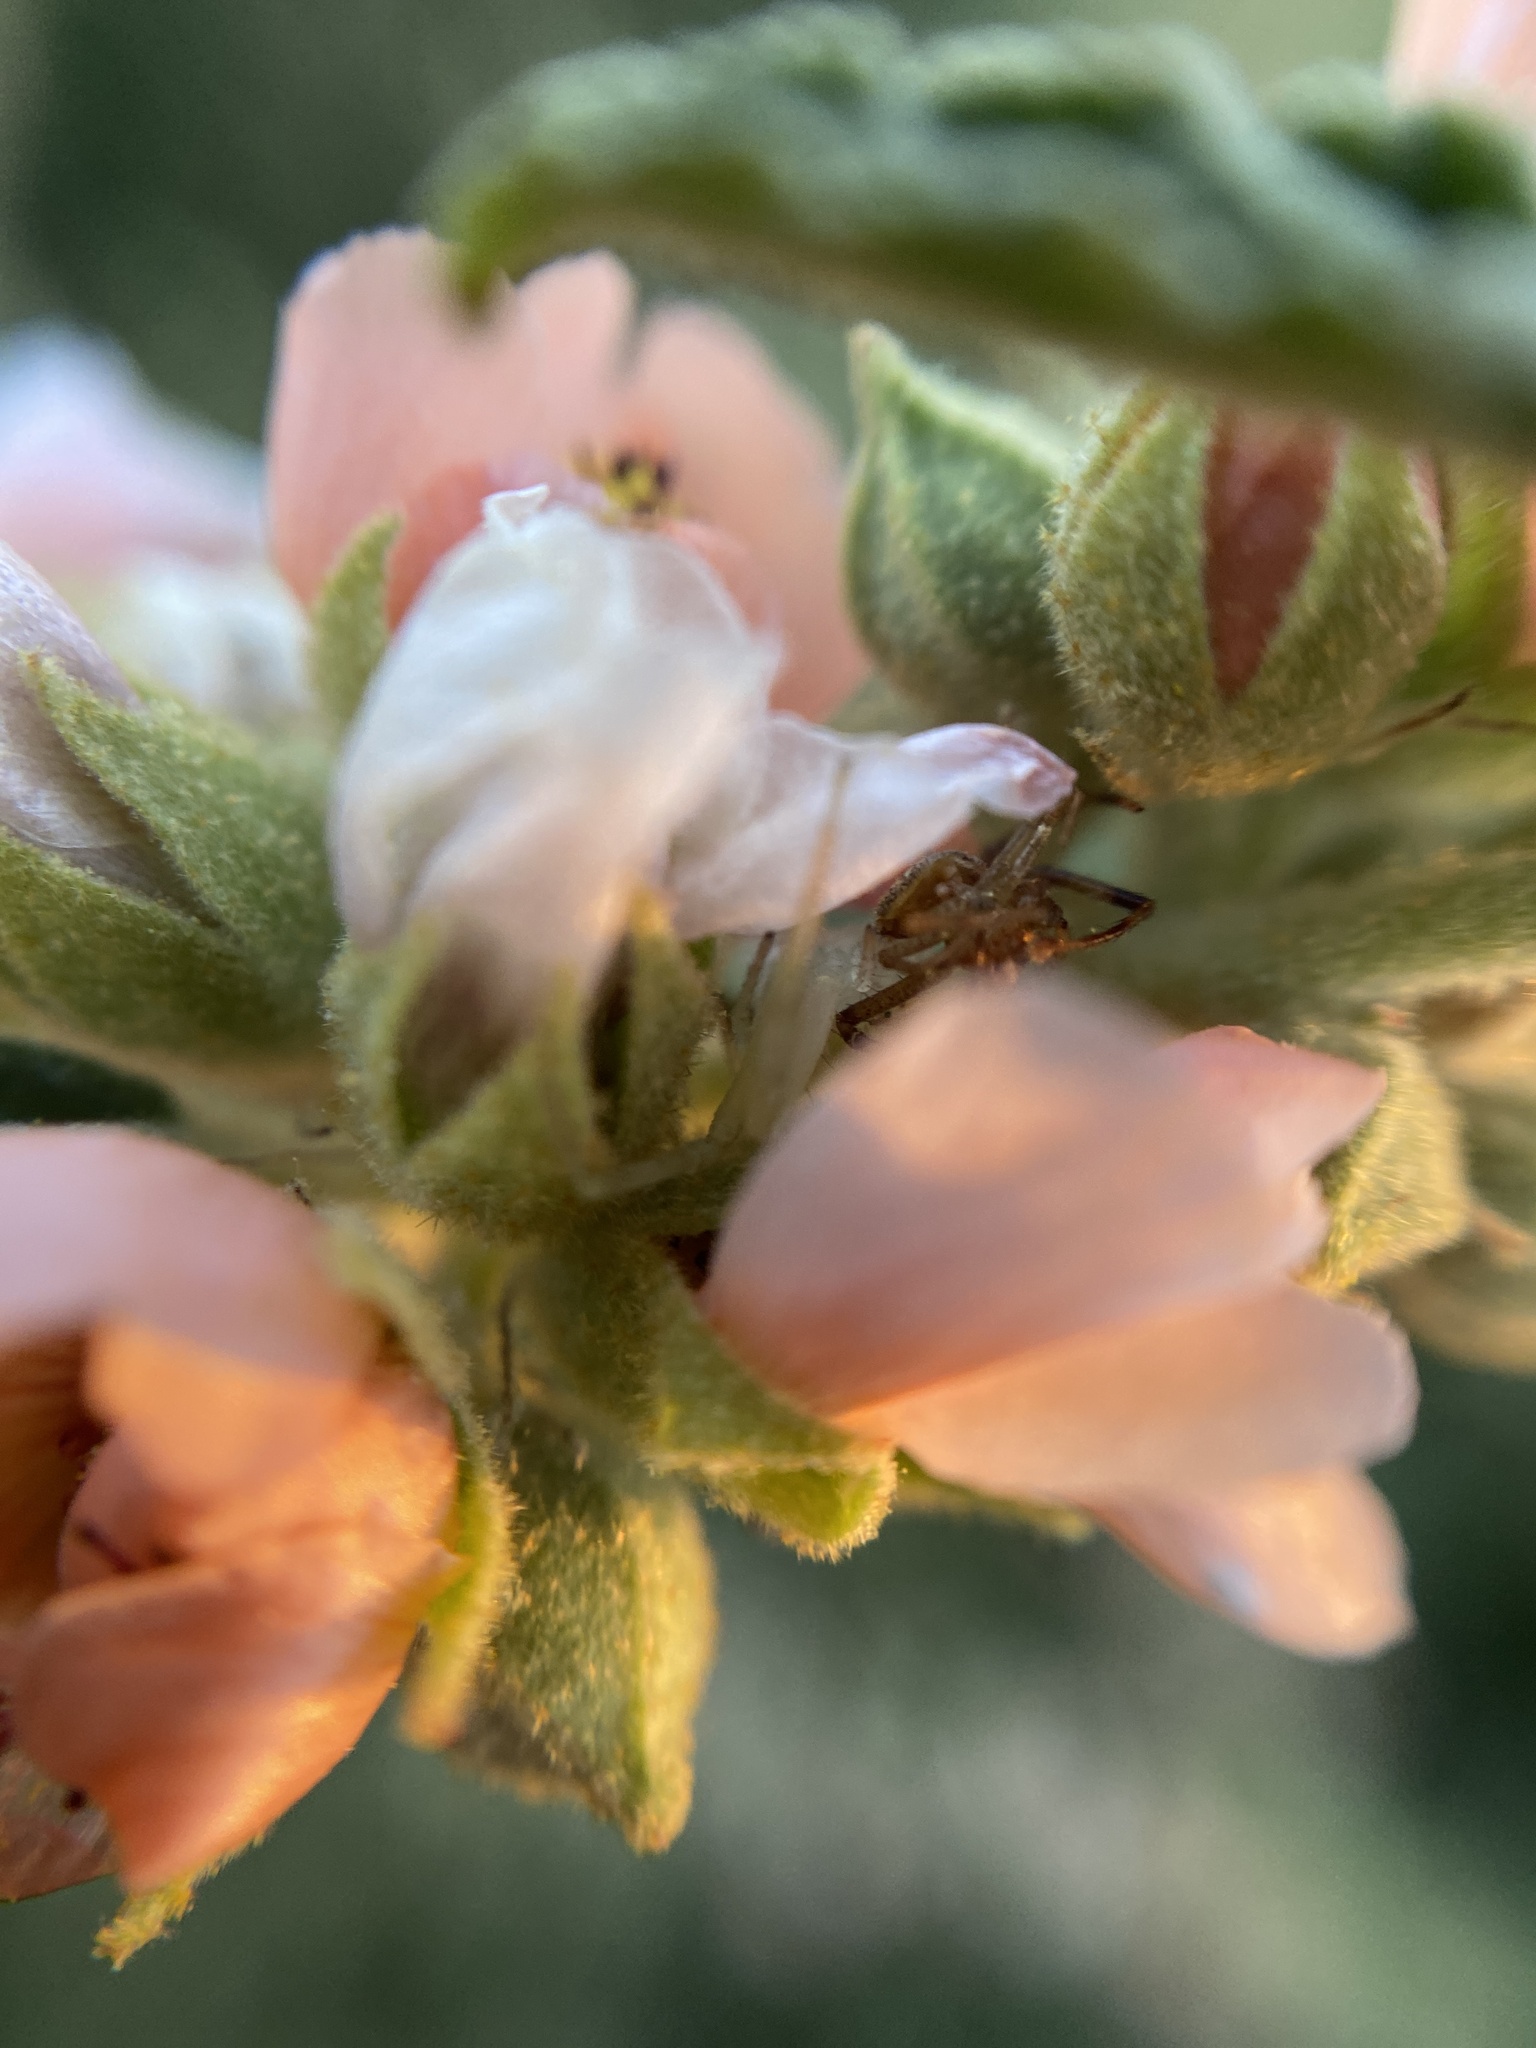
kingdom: Animalia
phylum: Arthropoda
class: Arachnida
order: Araneae
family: Thomisidae
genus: Misumenops
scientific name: Misumenops
